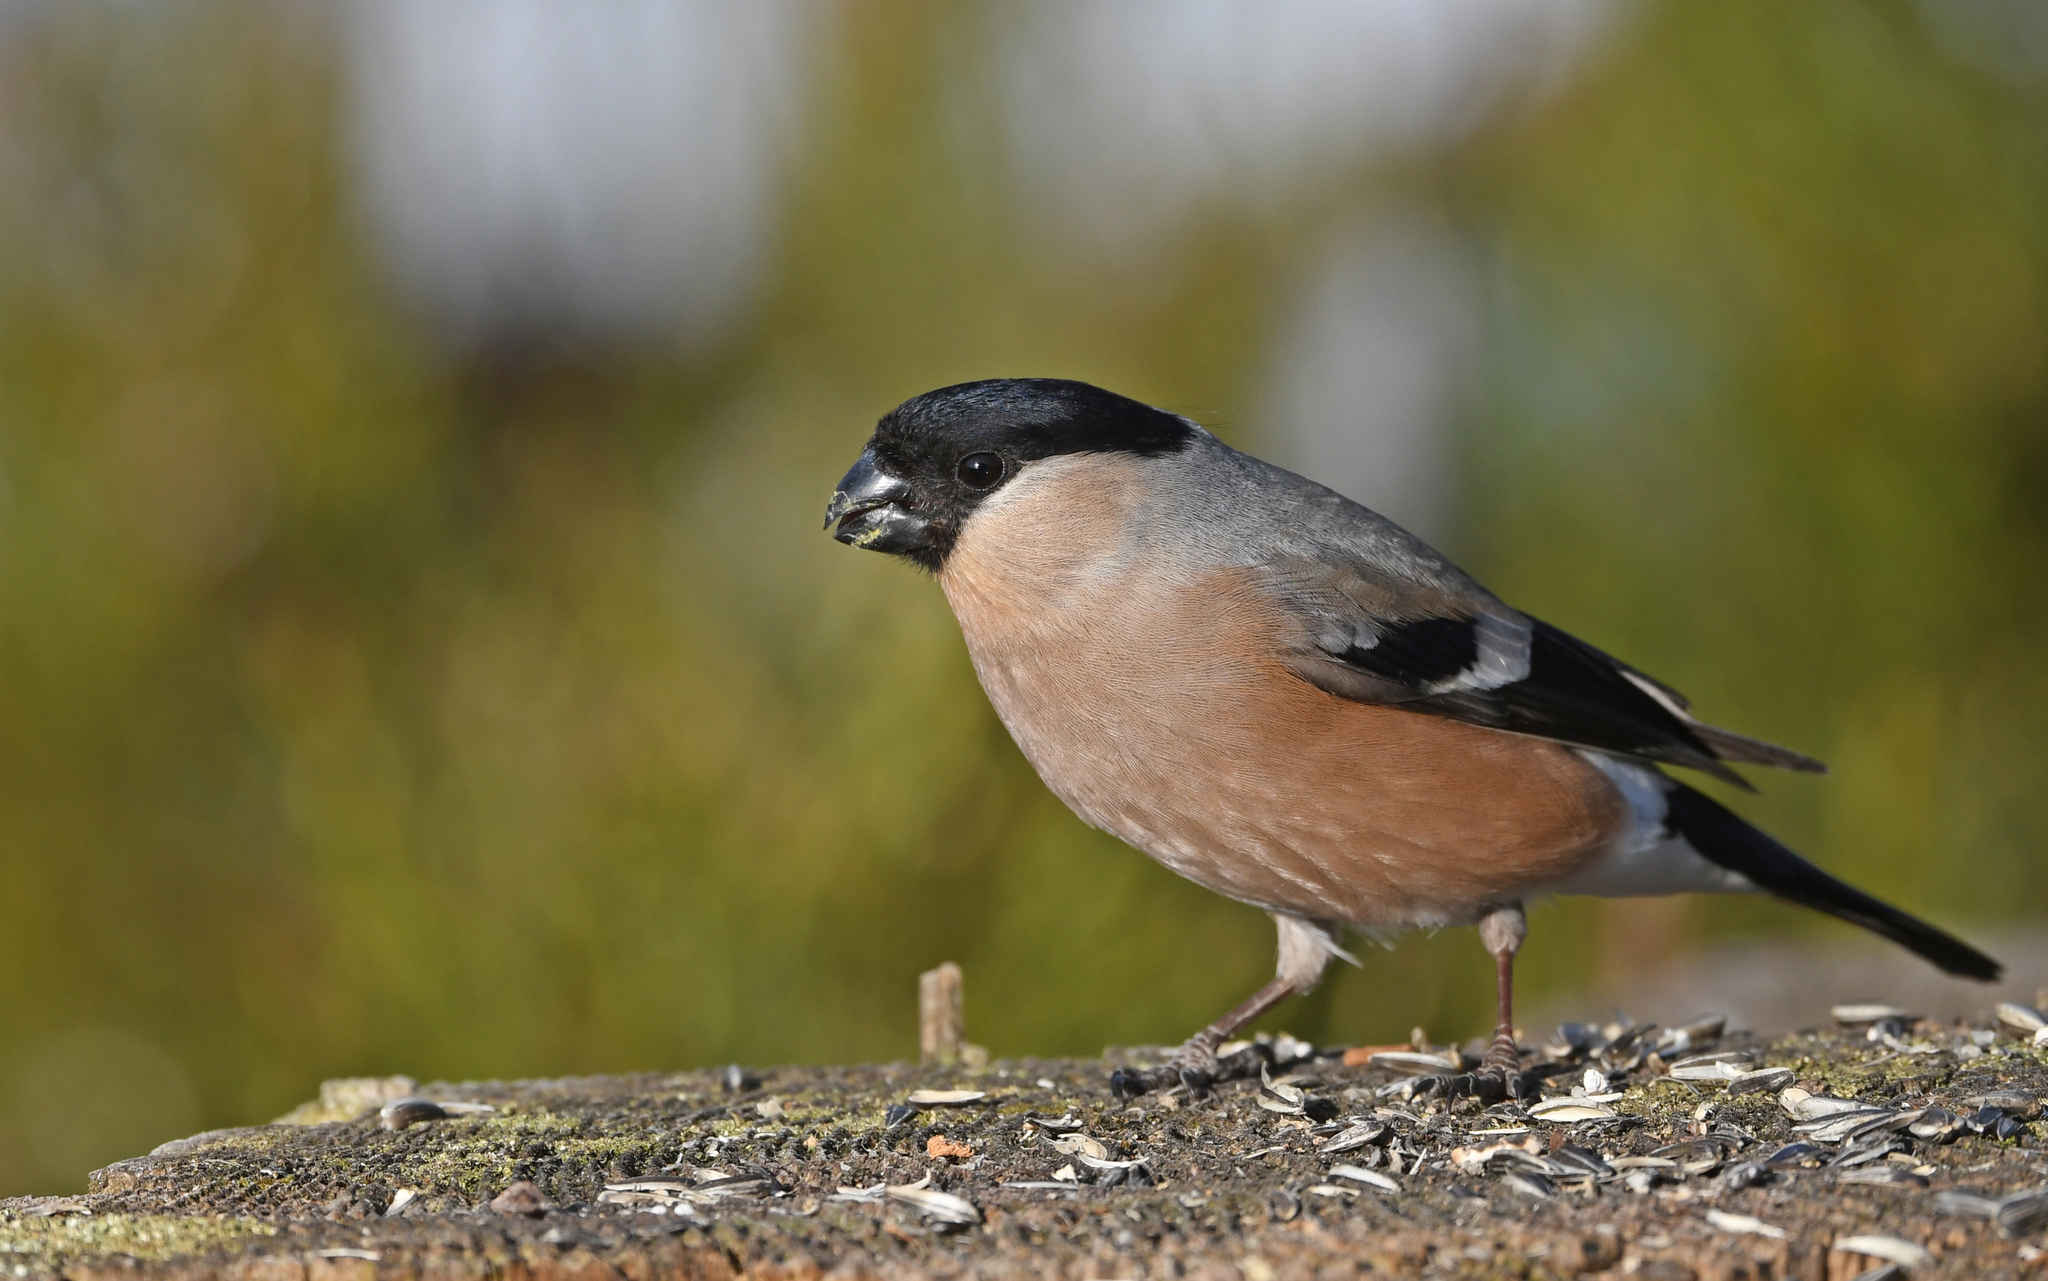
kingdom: Animalia
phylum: Chordata
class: Aves
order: Passeriformes
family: Fringillidae
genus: Pyrrhula
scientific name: Pyrrhula pyrrhula
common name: Eurasian bullfinch
